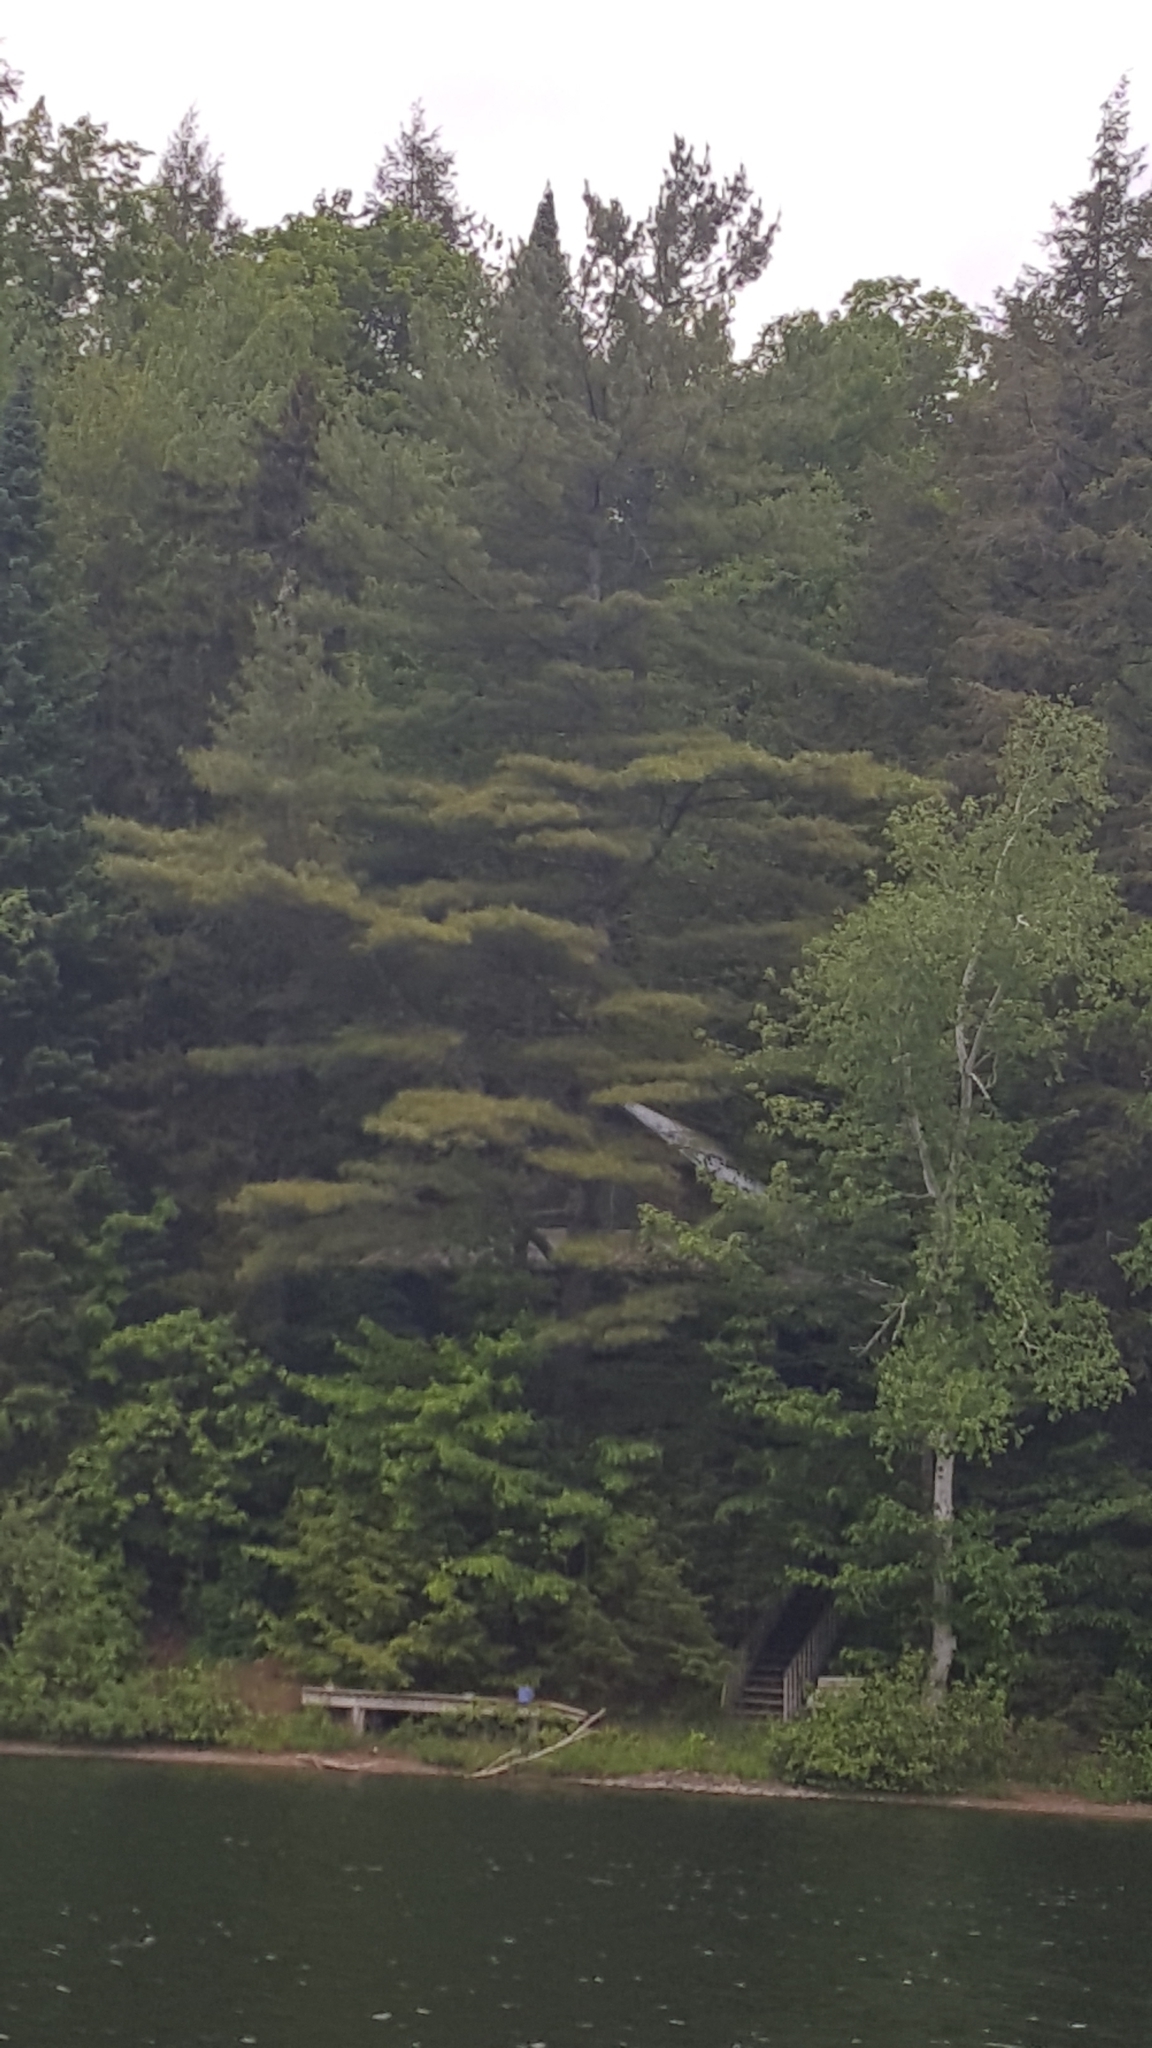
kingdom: Plantae
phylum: Tracheophyta
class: Pinopsida
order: Pinales
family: Pinaceae
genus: Pinus
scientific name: Pinus strobus
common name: Weymouth pine
